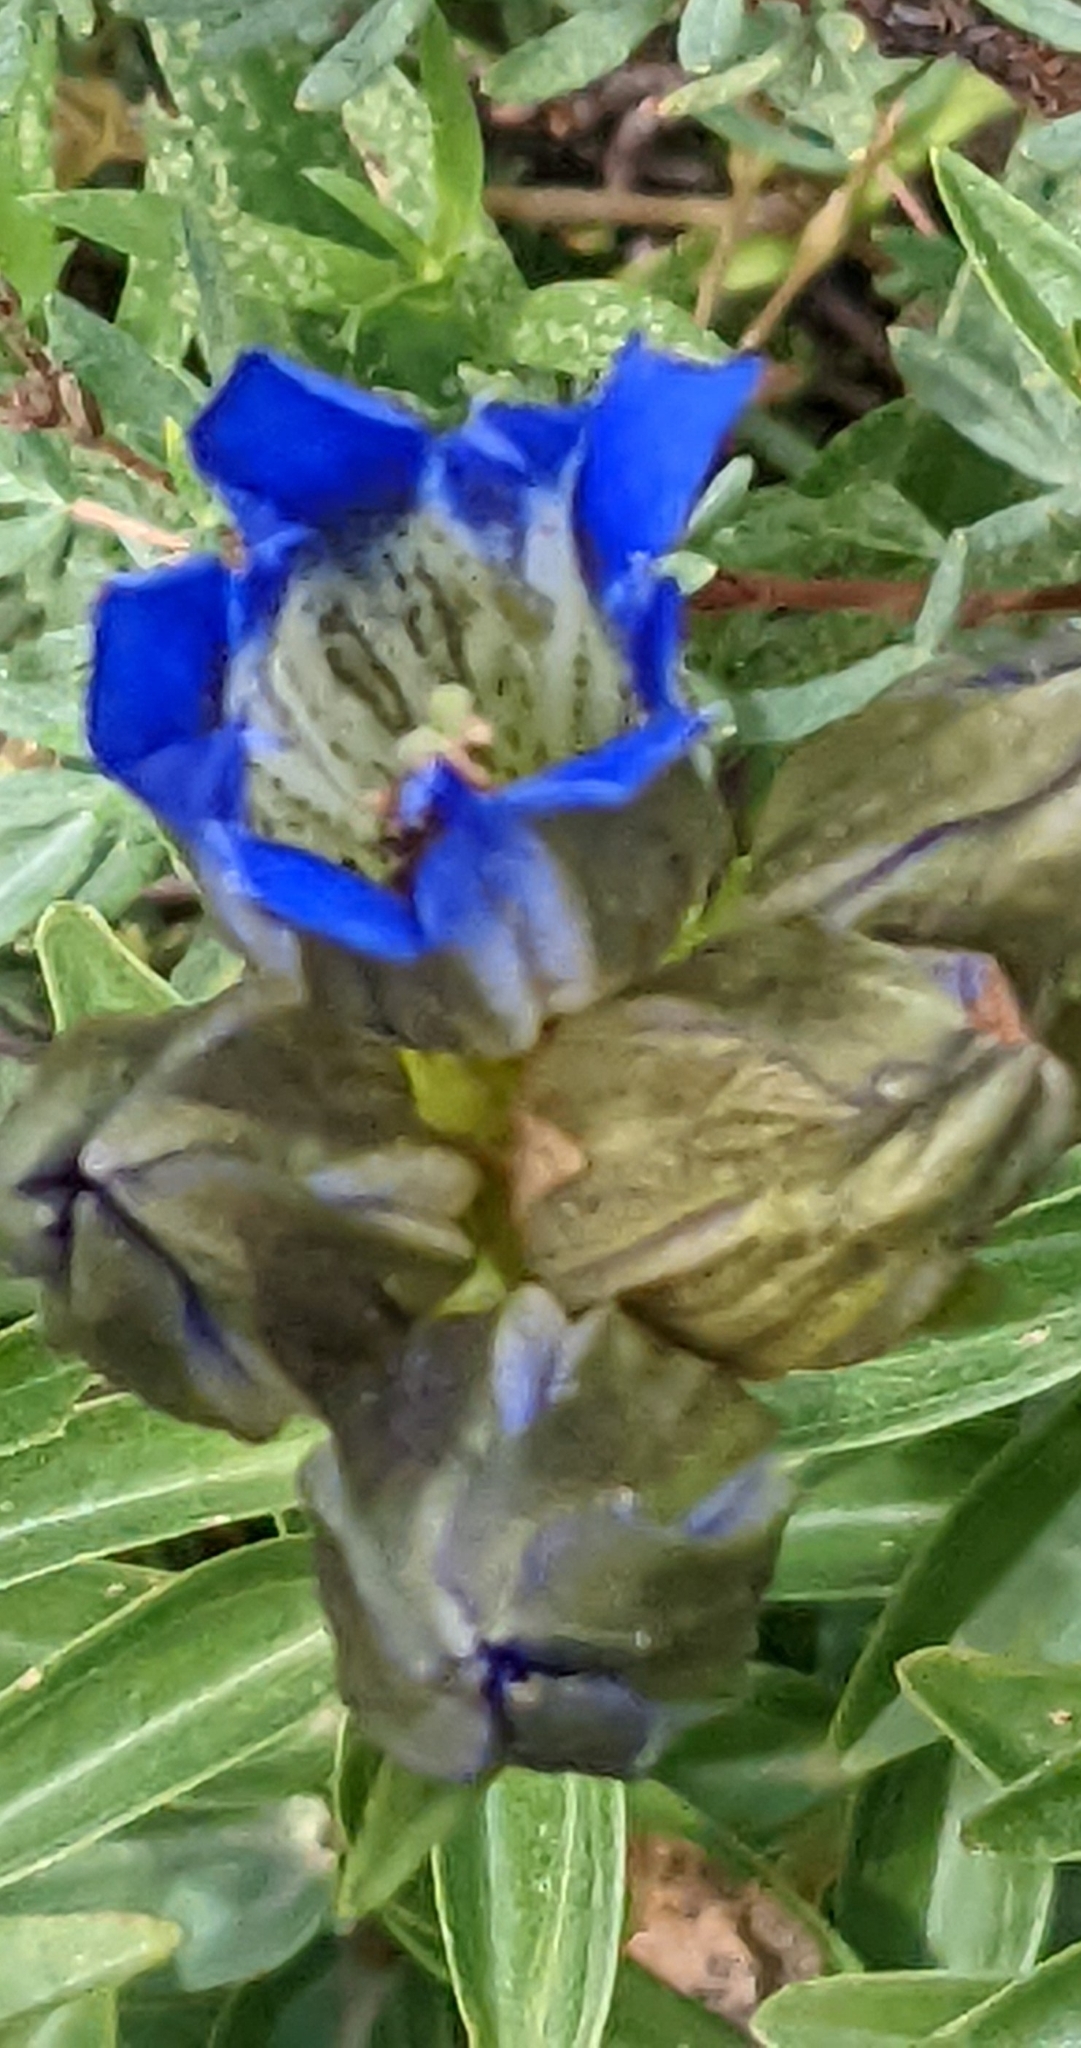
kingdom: Plantae
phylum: Tracheophyta
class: Magnoliopsida
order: Gentianales
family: Gentianaceae
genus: Gentiana
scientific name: Gentiana parryi
